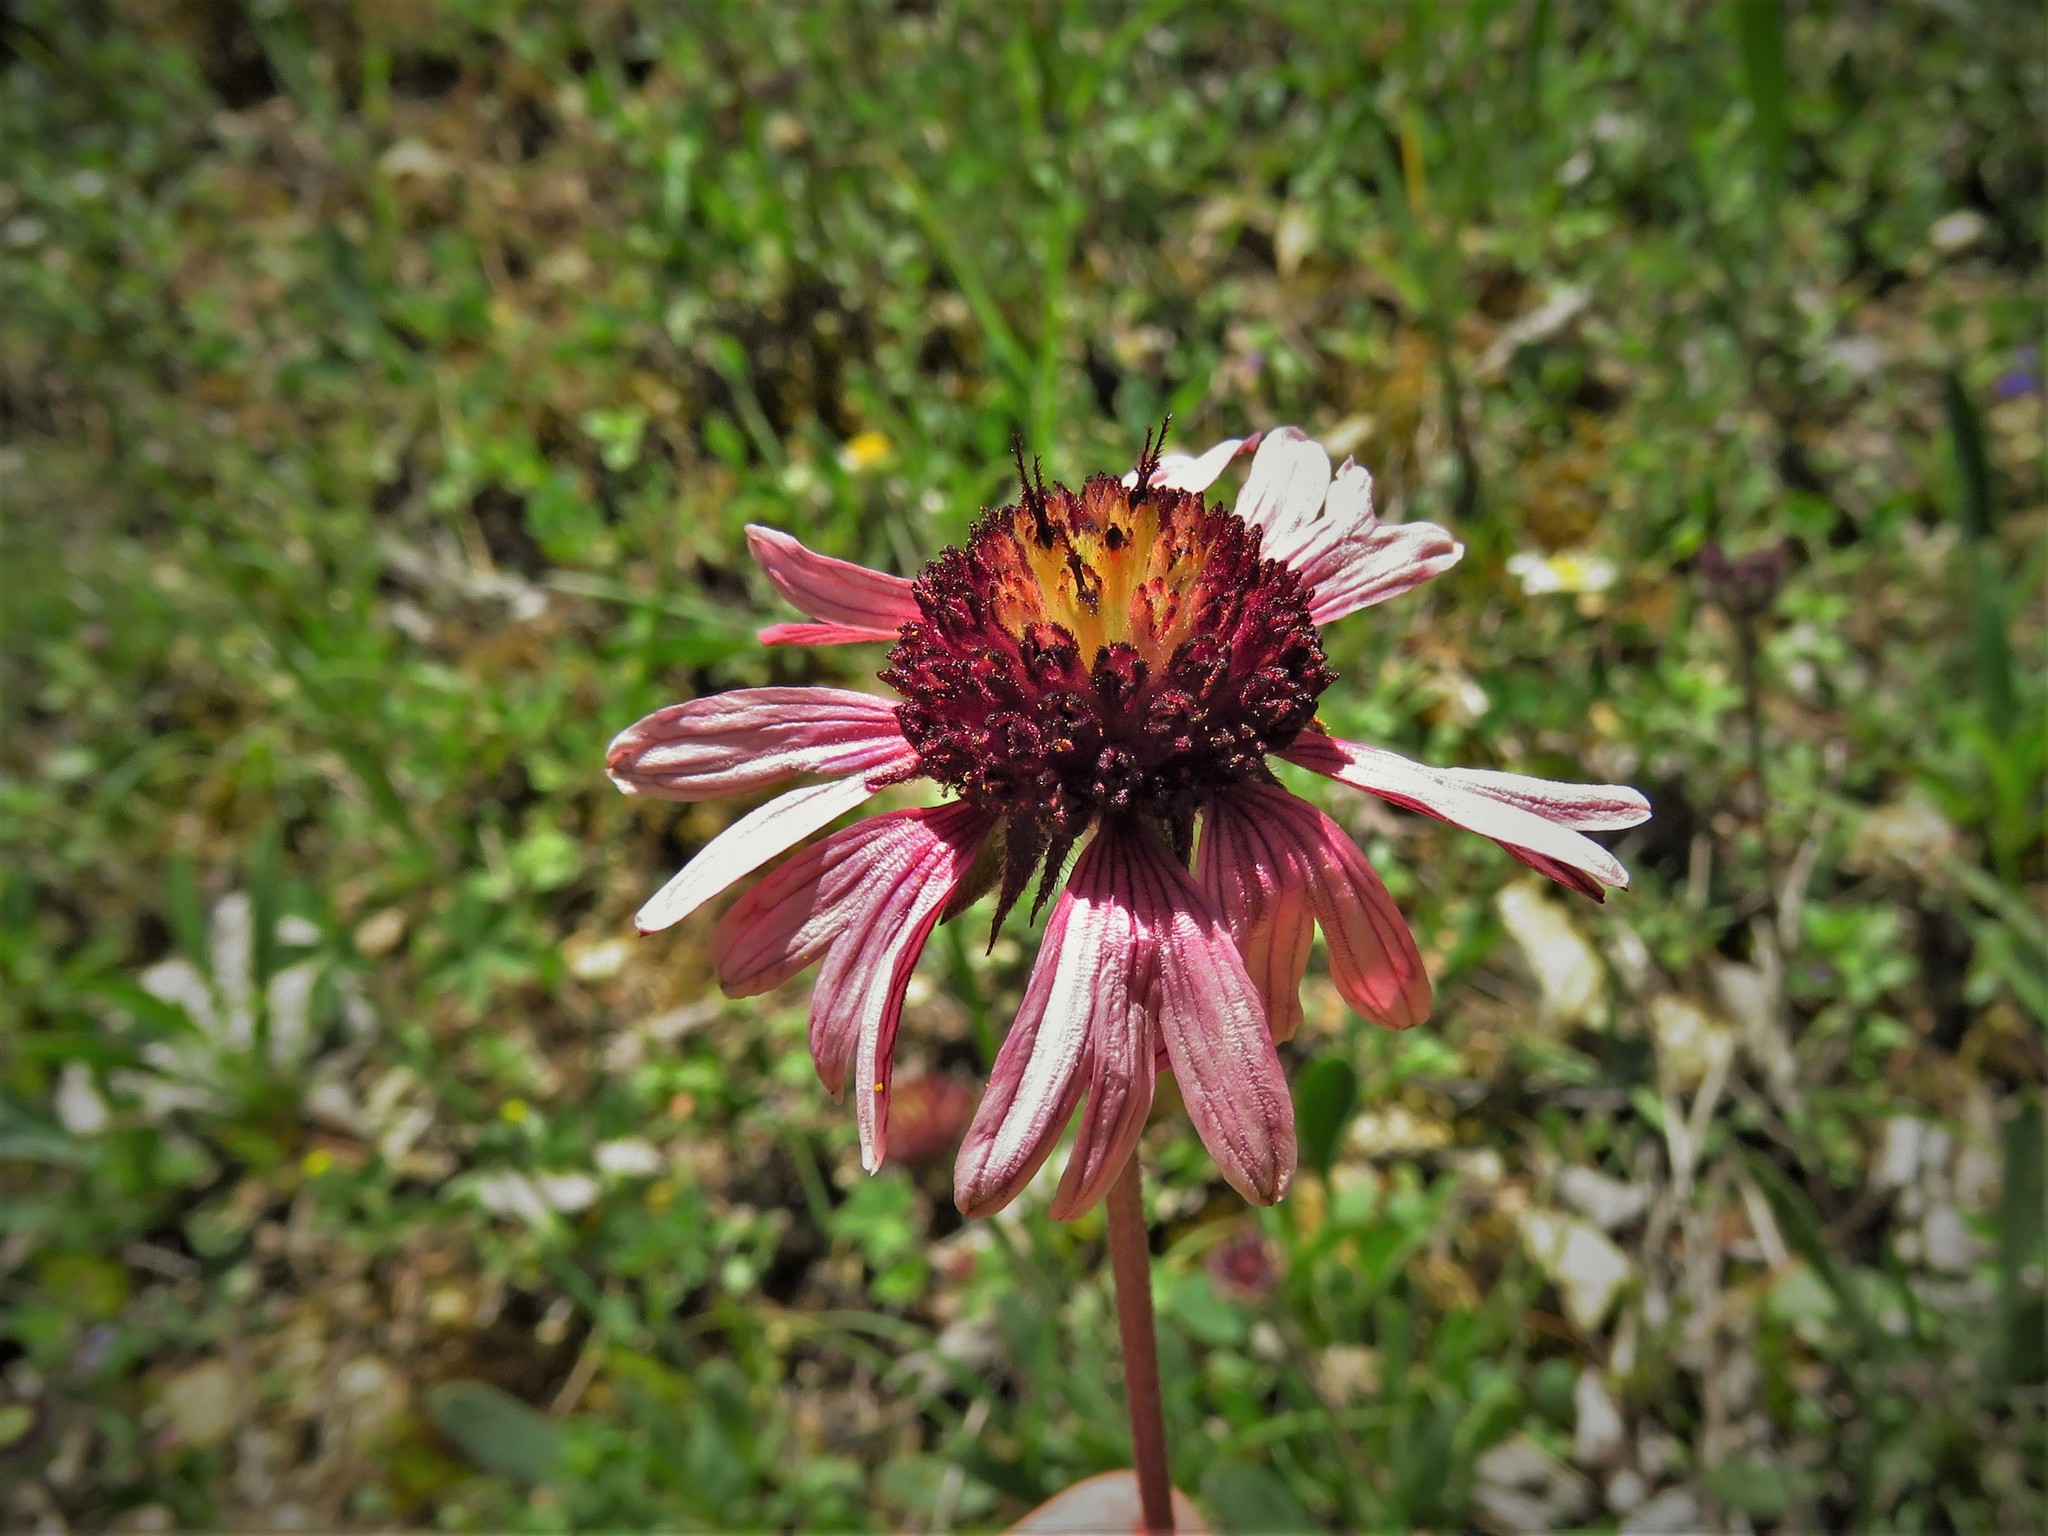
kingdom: Plantae
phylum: Tracheophyta
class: Magnoliopsida
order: Asterales
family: Asteraceae
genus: Gaillardia
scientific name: Gaillardia mexicana
